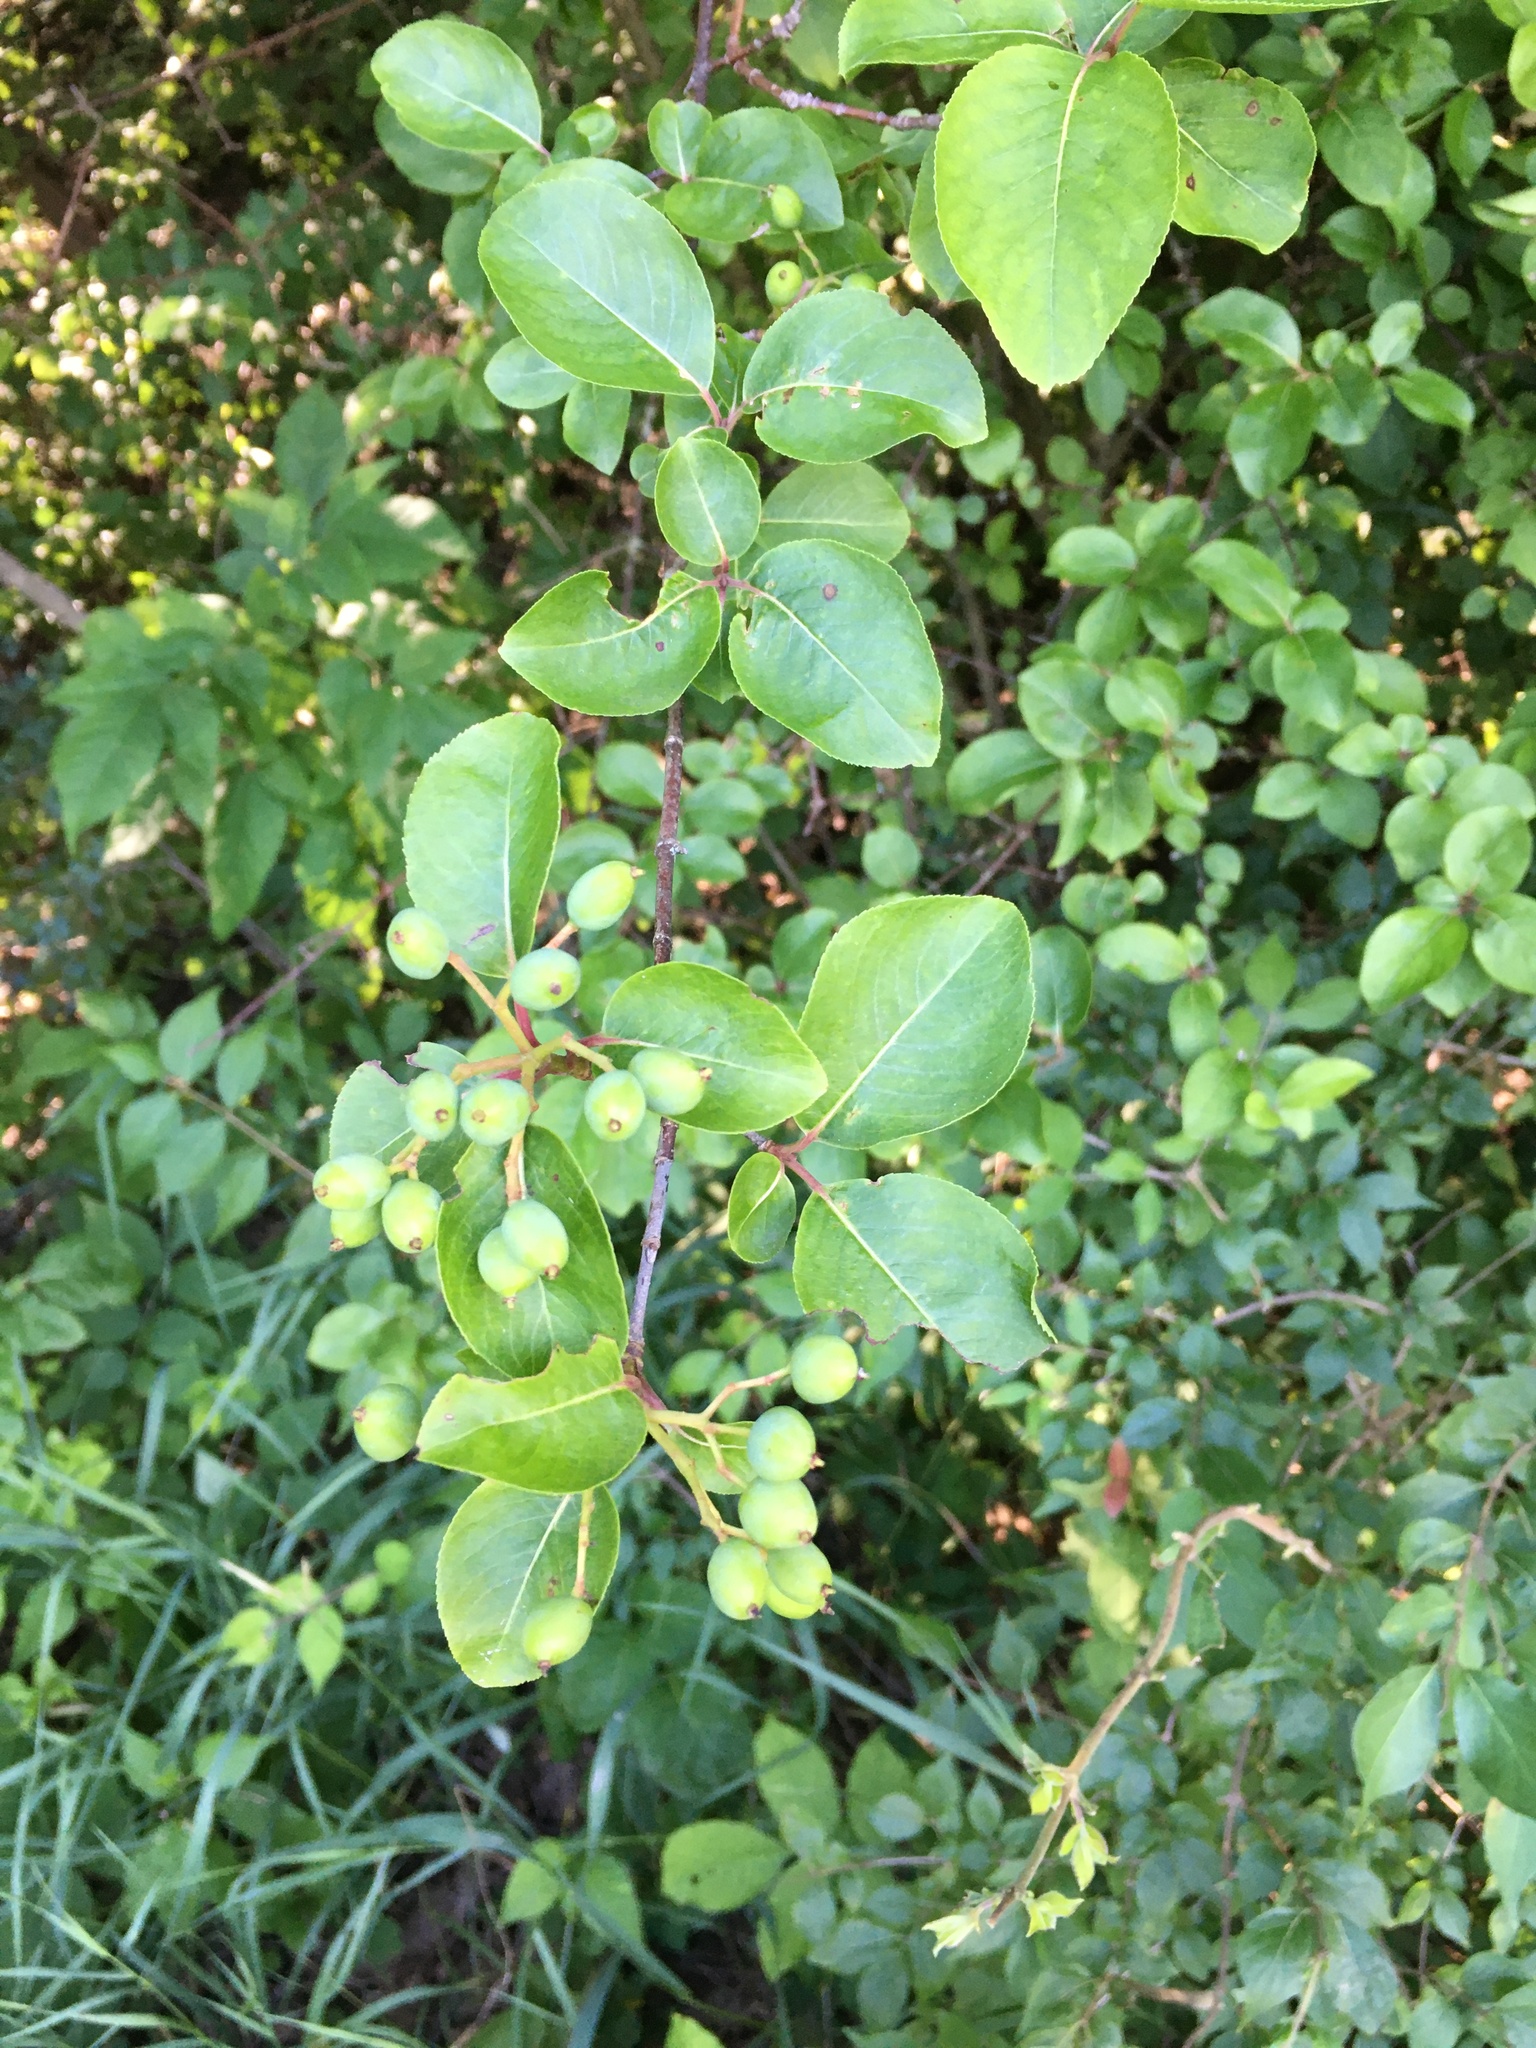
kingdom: Plantae
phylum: Tracheophyta
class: Magnoliopsida
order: Dipsacales
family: Viburnaceae
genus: Viburnum
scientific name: Viburnum prunifolium
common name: Black haw
